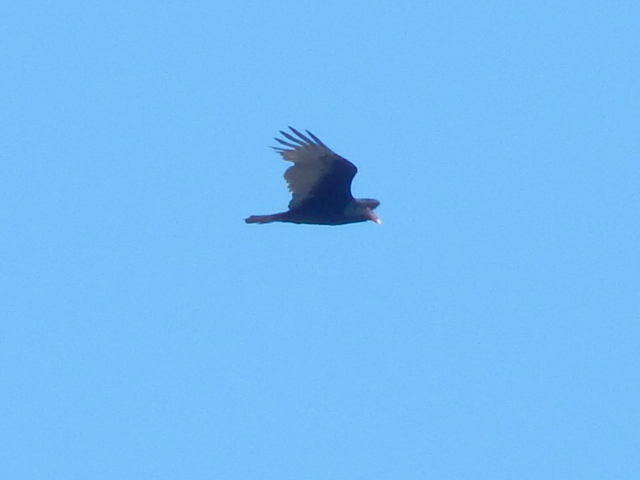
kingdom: Animalia
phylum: Chordata
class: Aves
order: Accipitriformes
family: Cathartidae
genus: Cathartes
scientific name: Cathartes aura
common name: Turkey vulture
